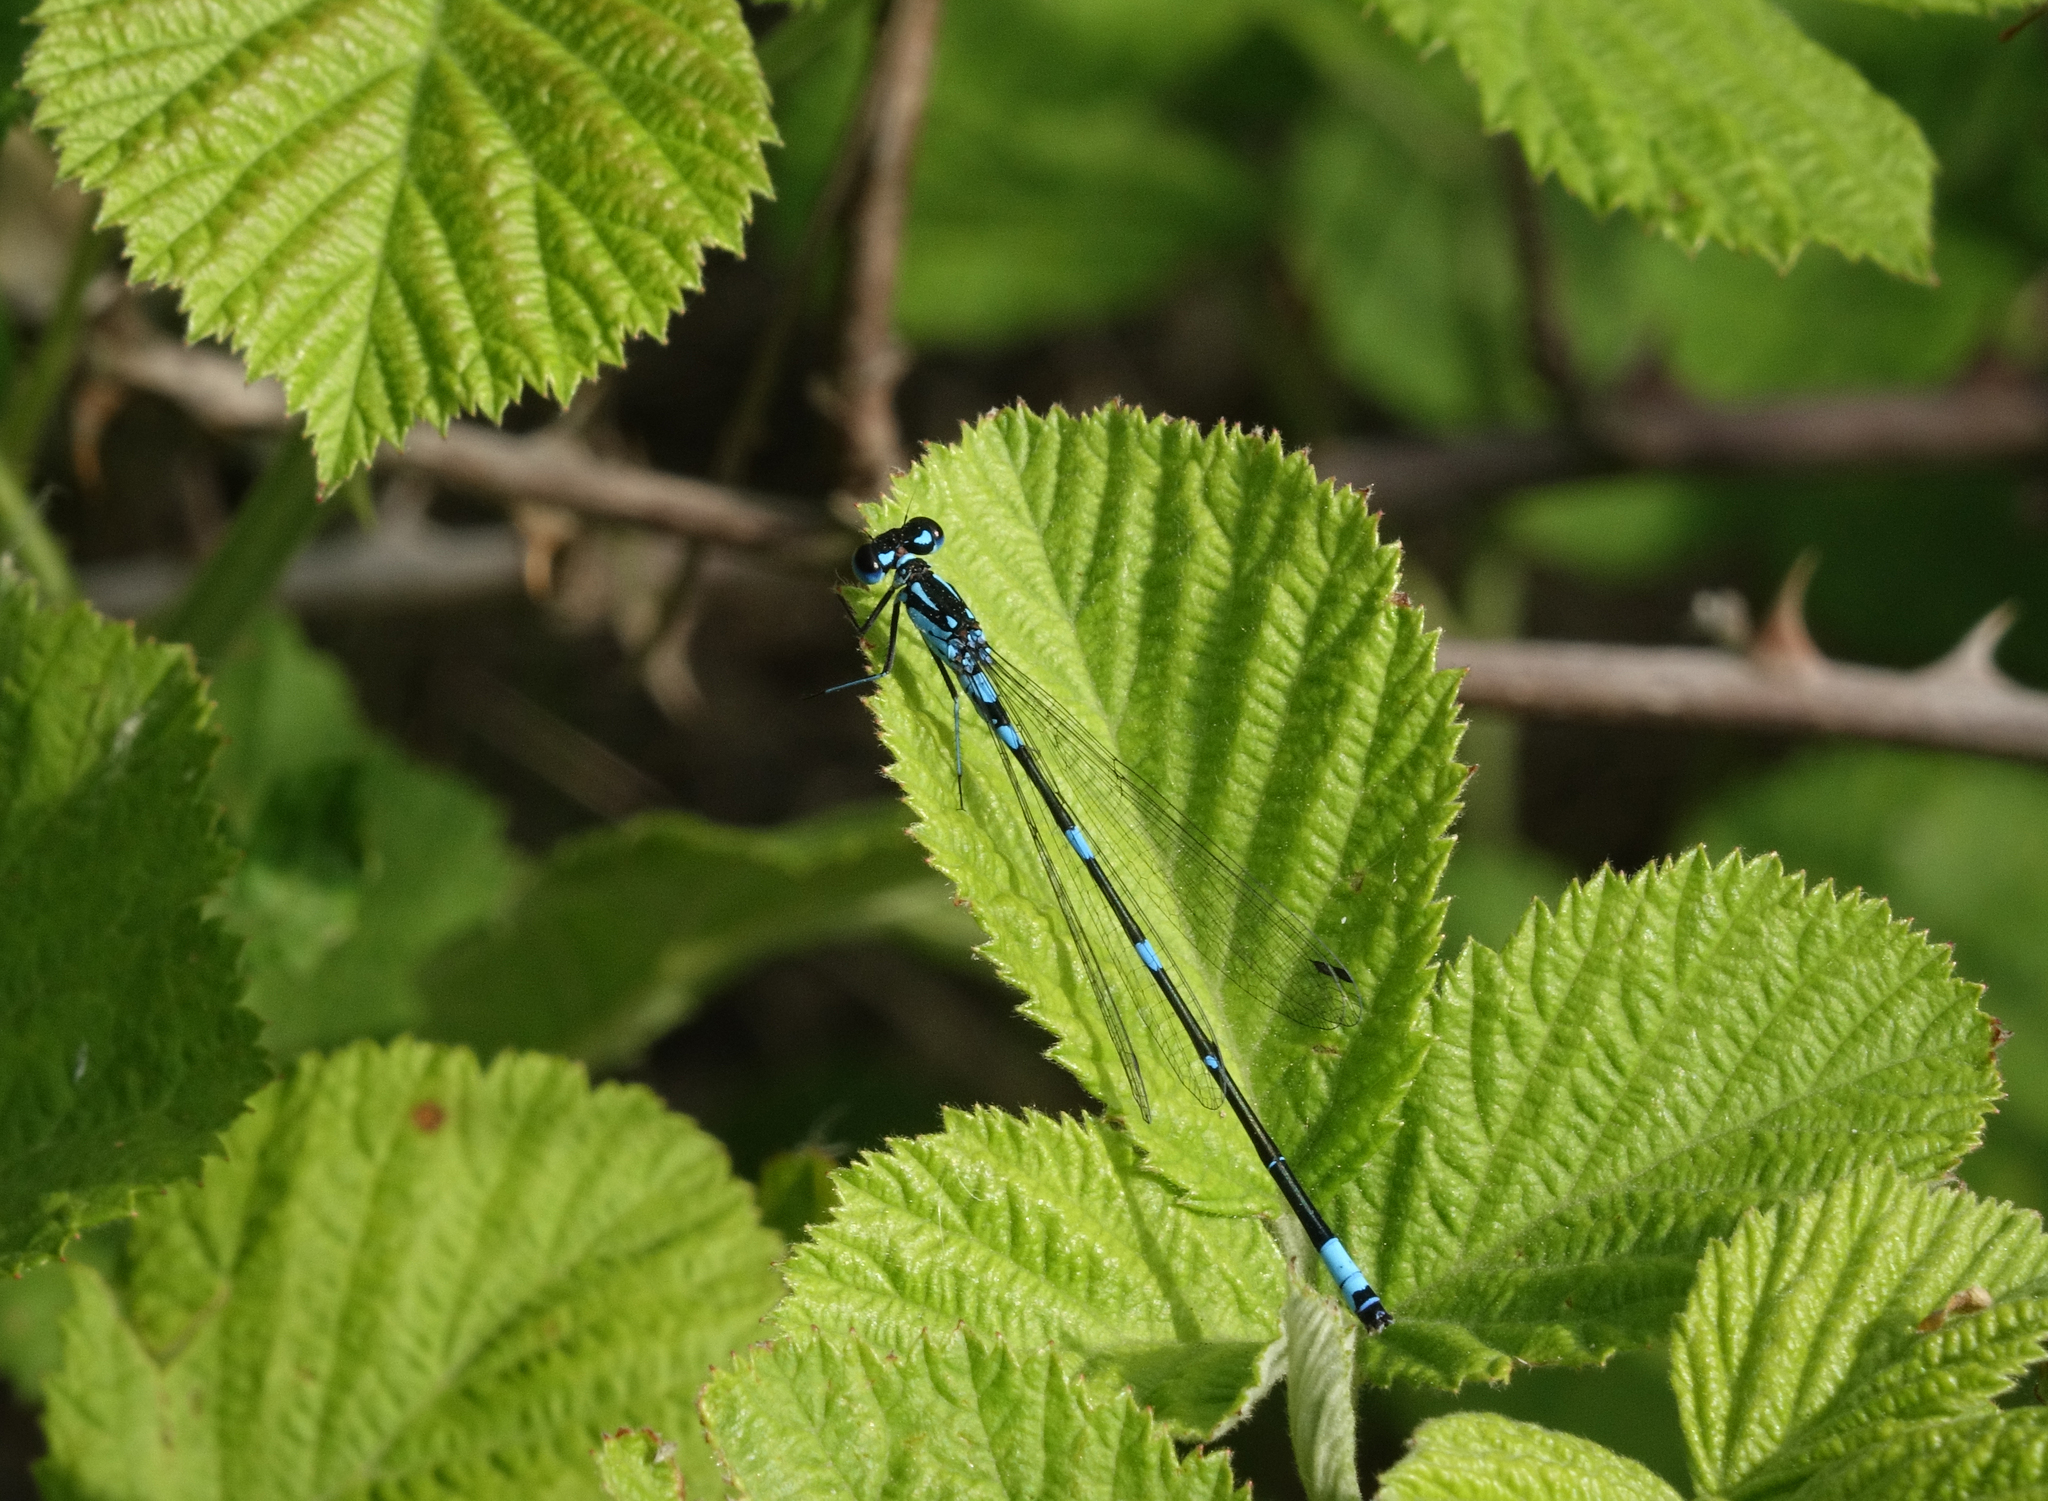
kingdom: Animalia
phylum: Arthropoda
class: Insecta
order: Odonata
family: Coenagrionidae
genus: Coenagrion
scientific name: Coenagrion pulchellum
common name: Variable bluet
